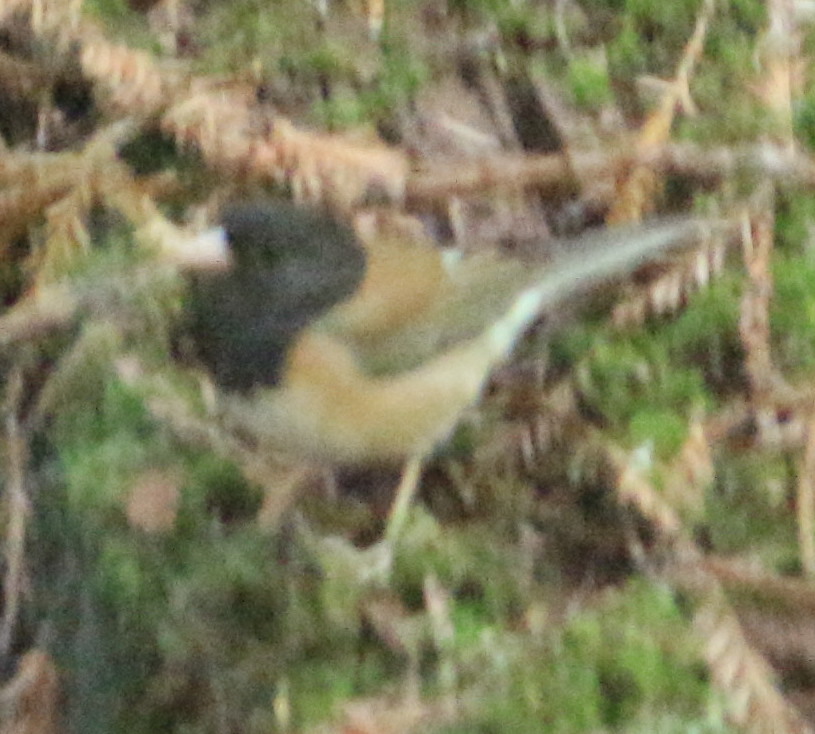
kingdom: Animalia
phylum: Chordata
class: Aves
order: Passeriformes
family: Passerellidae
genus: Junco
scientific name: Junco hyemalis
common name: Dark-eyed junco
